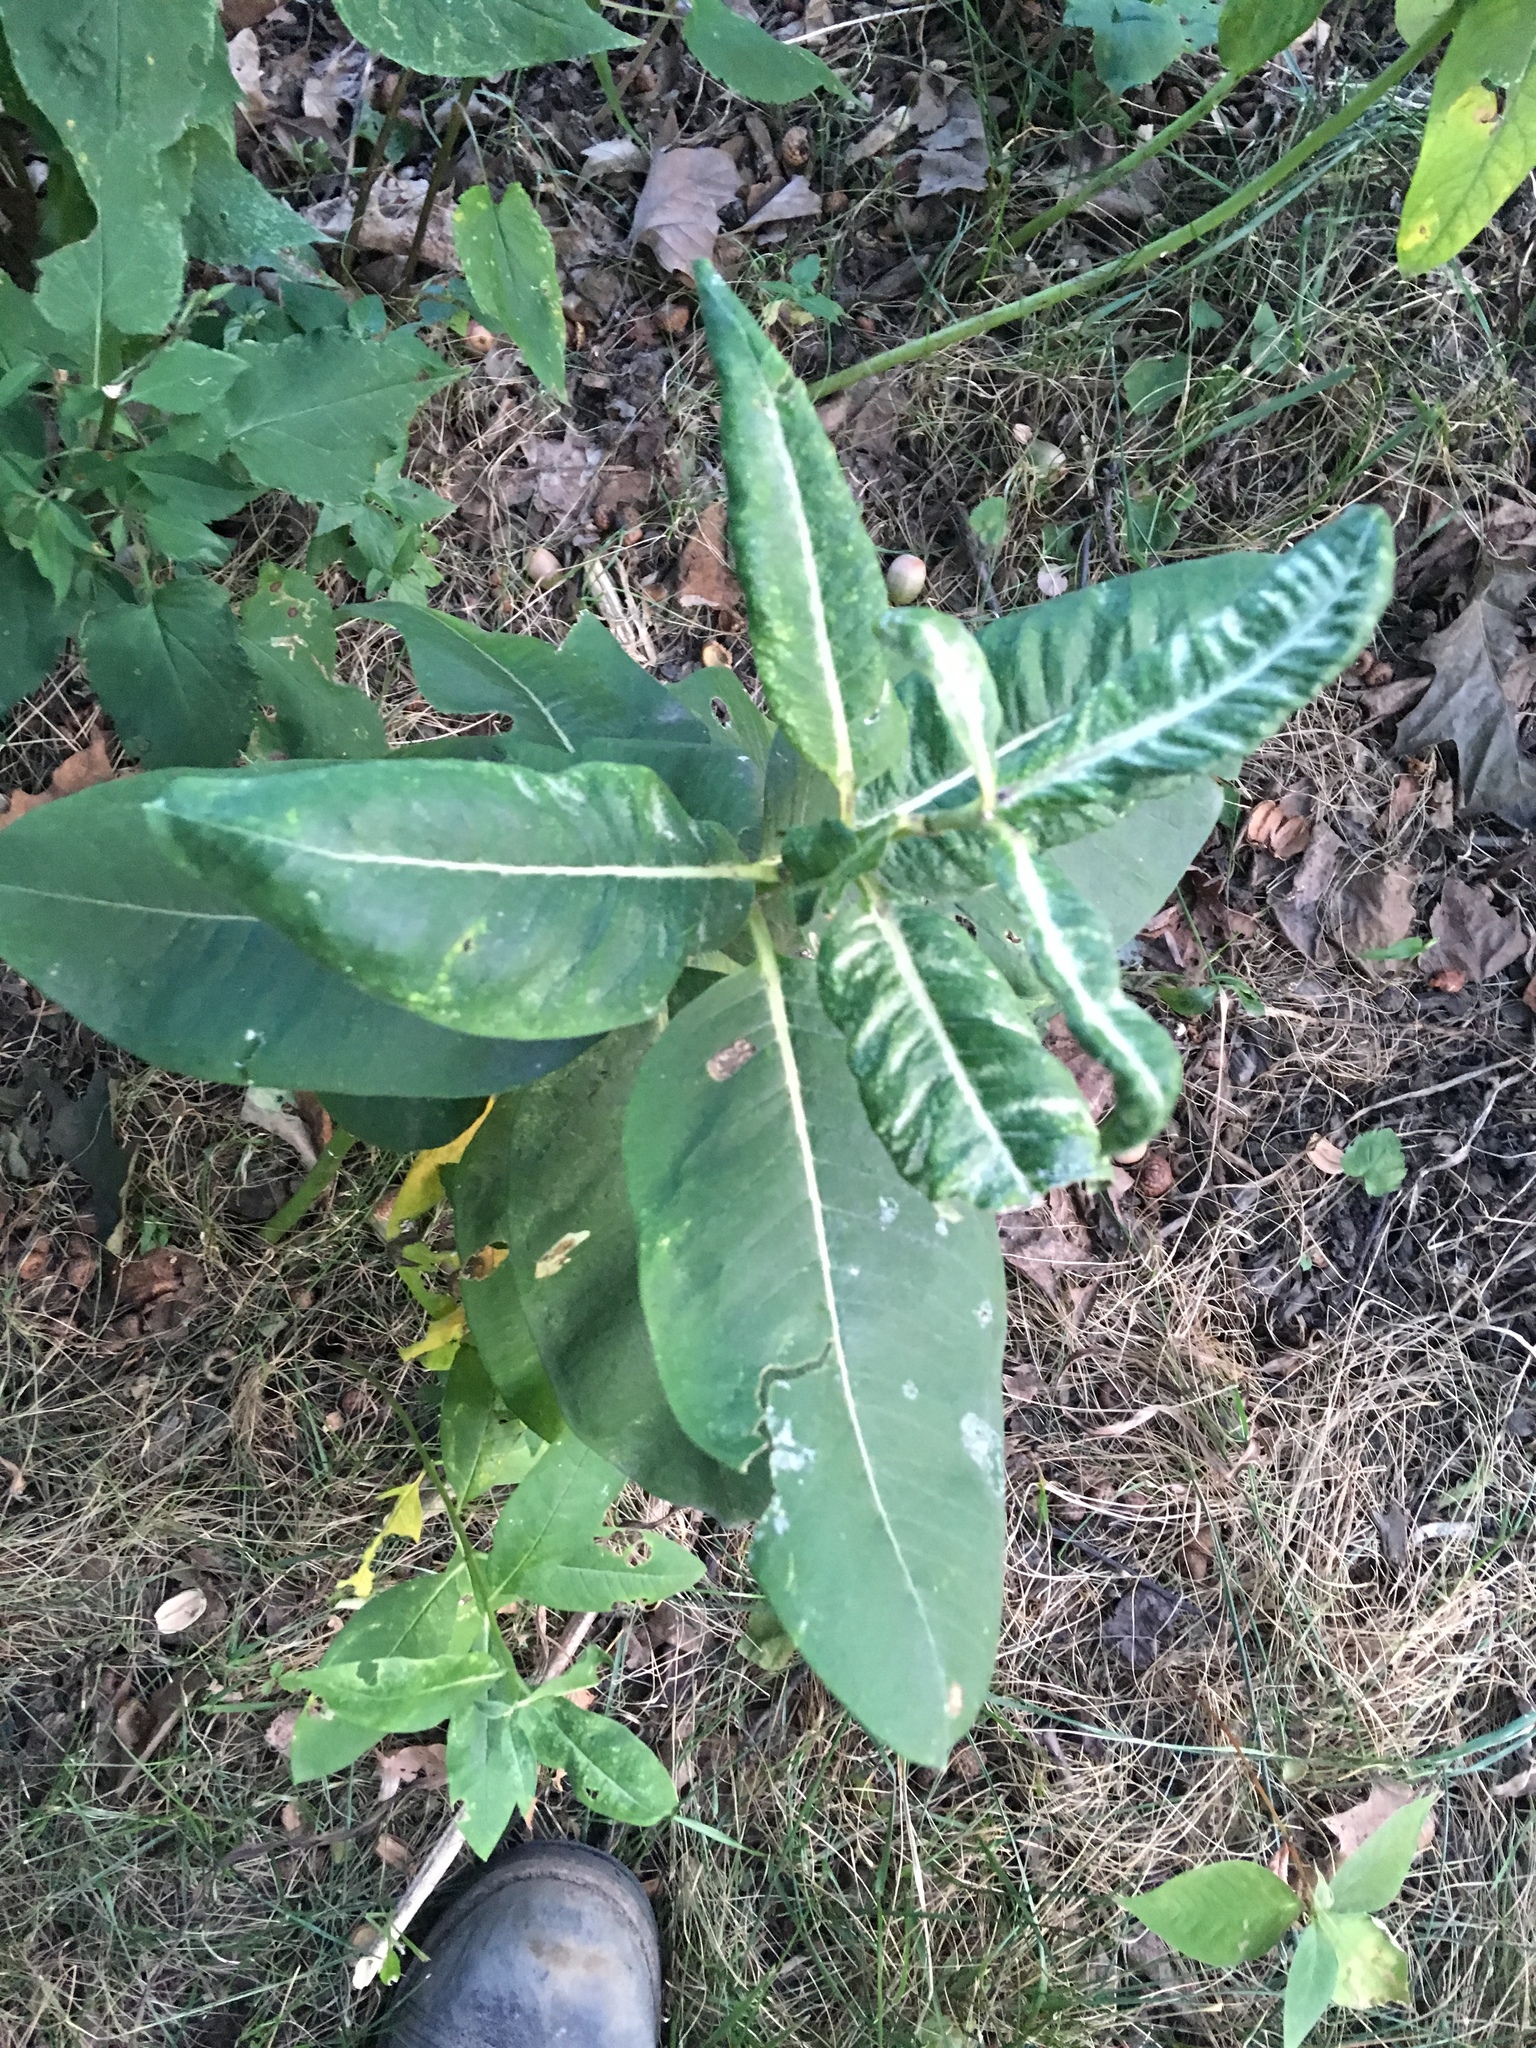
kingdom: Plantae
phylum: Tracheophyta
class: Magnoliopsida
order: Gentianales
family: Apocynaceae
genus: Asclepias
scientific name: Asclepias syriaca
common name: Common milkweed
